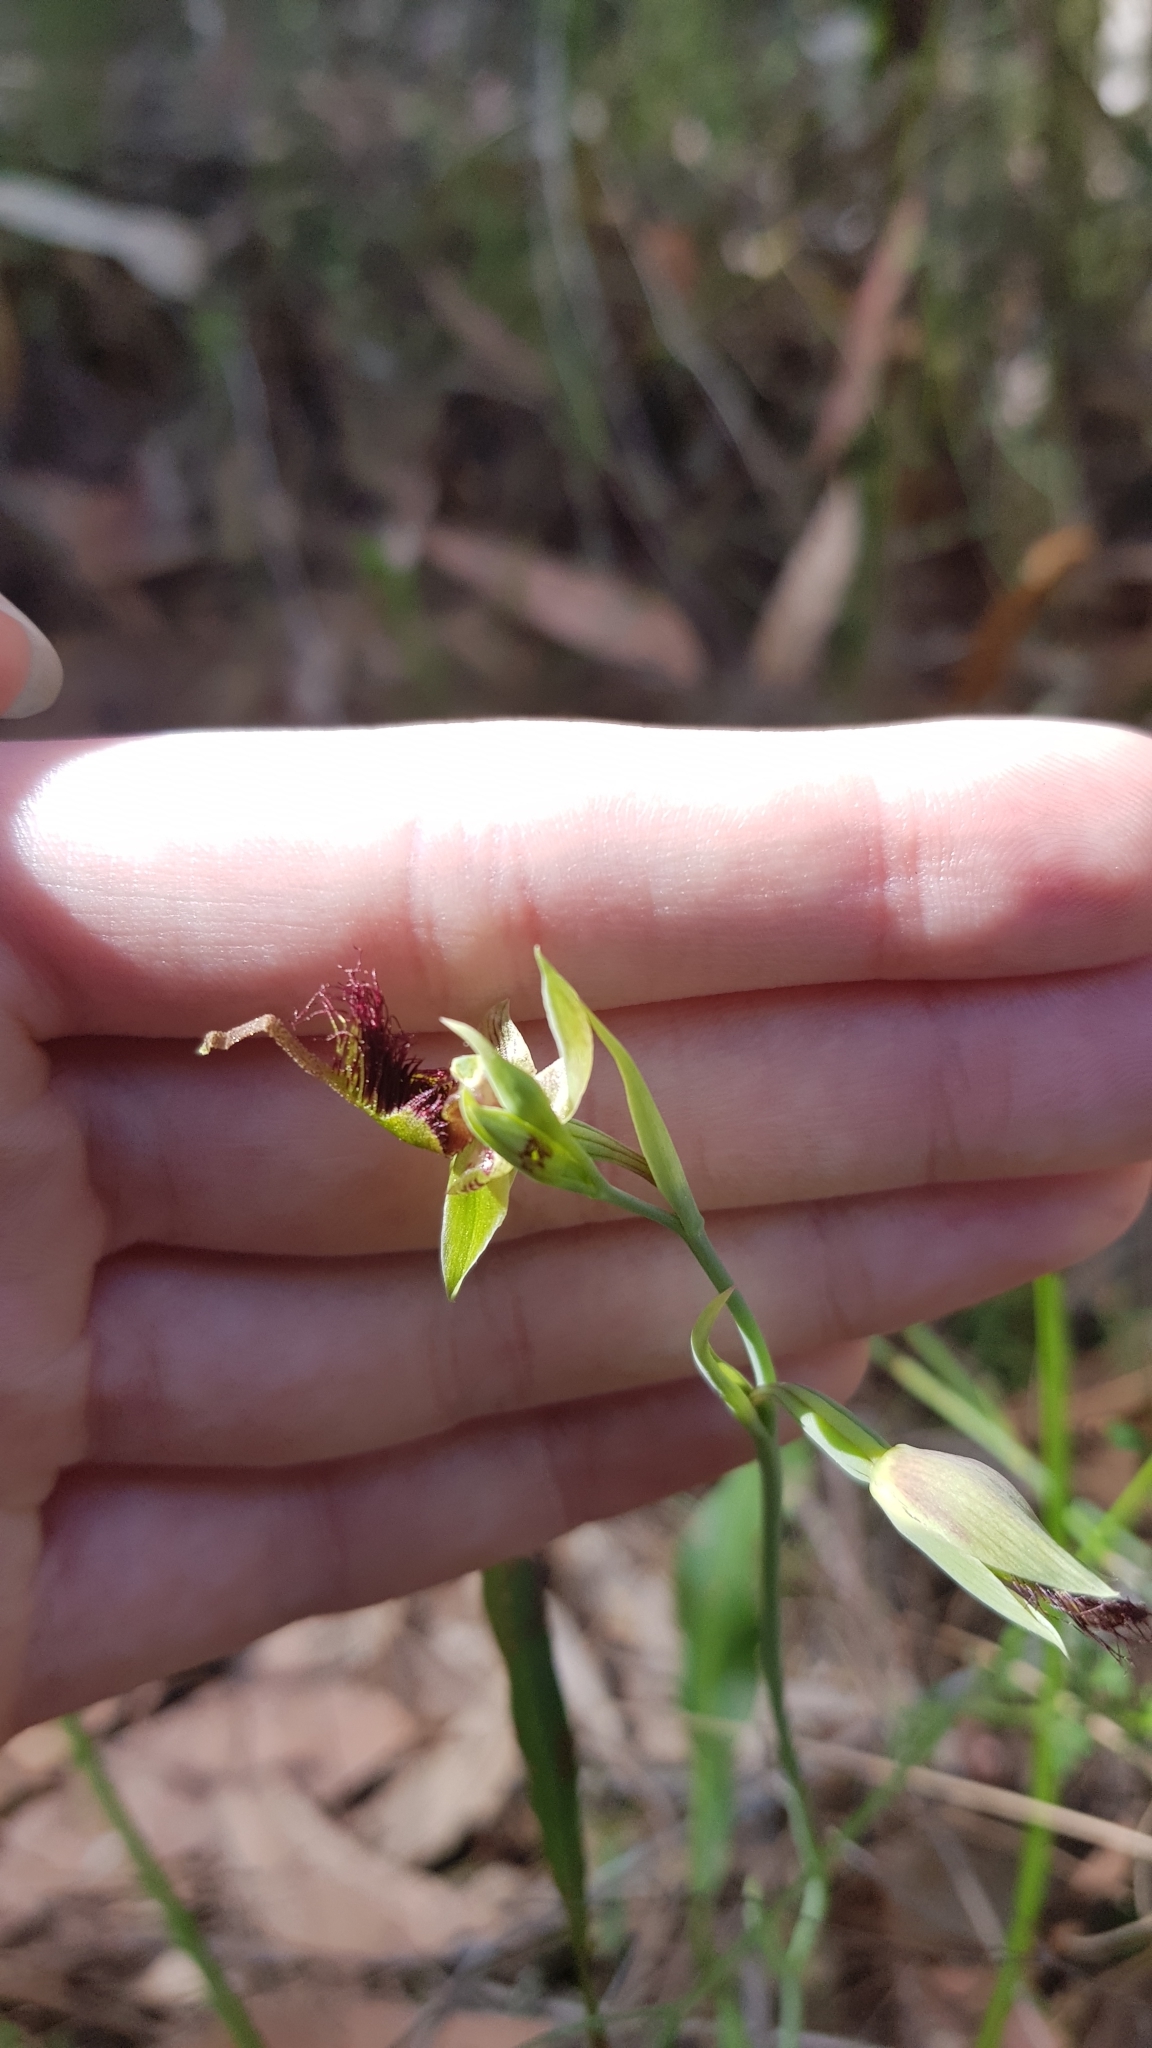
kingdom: Plantae
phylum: Tracheophyta
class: Liliopsida
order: Asparagales
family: Orchidaceae
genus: Calochilus
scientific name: Calochilus paludosus
